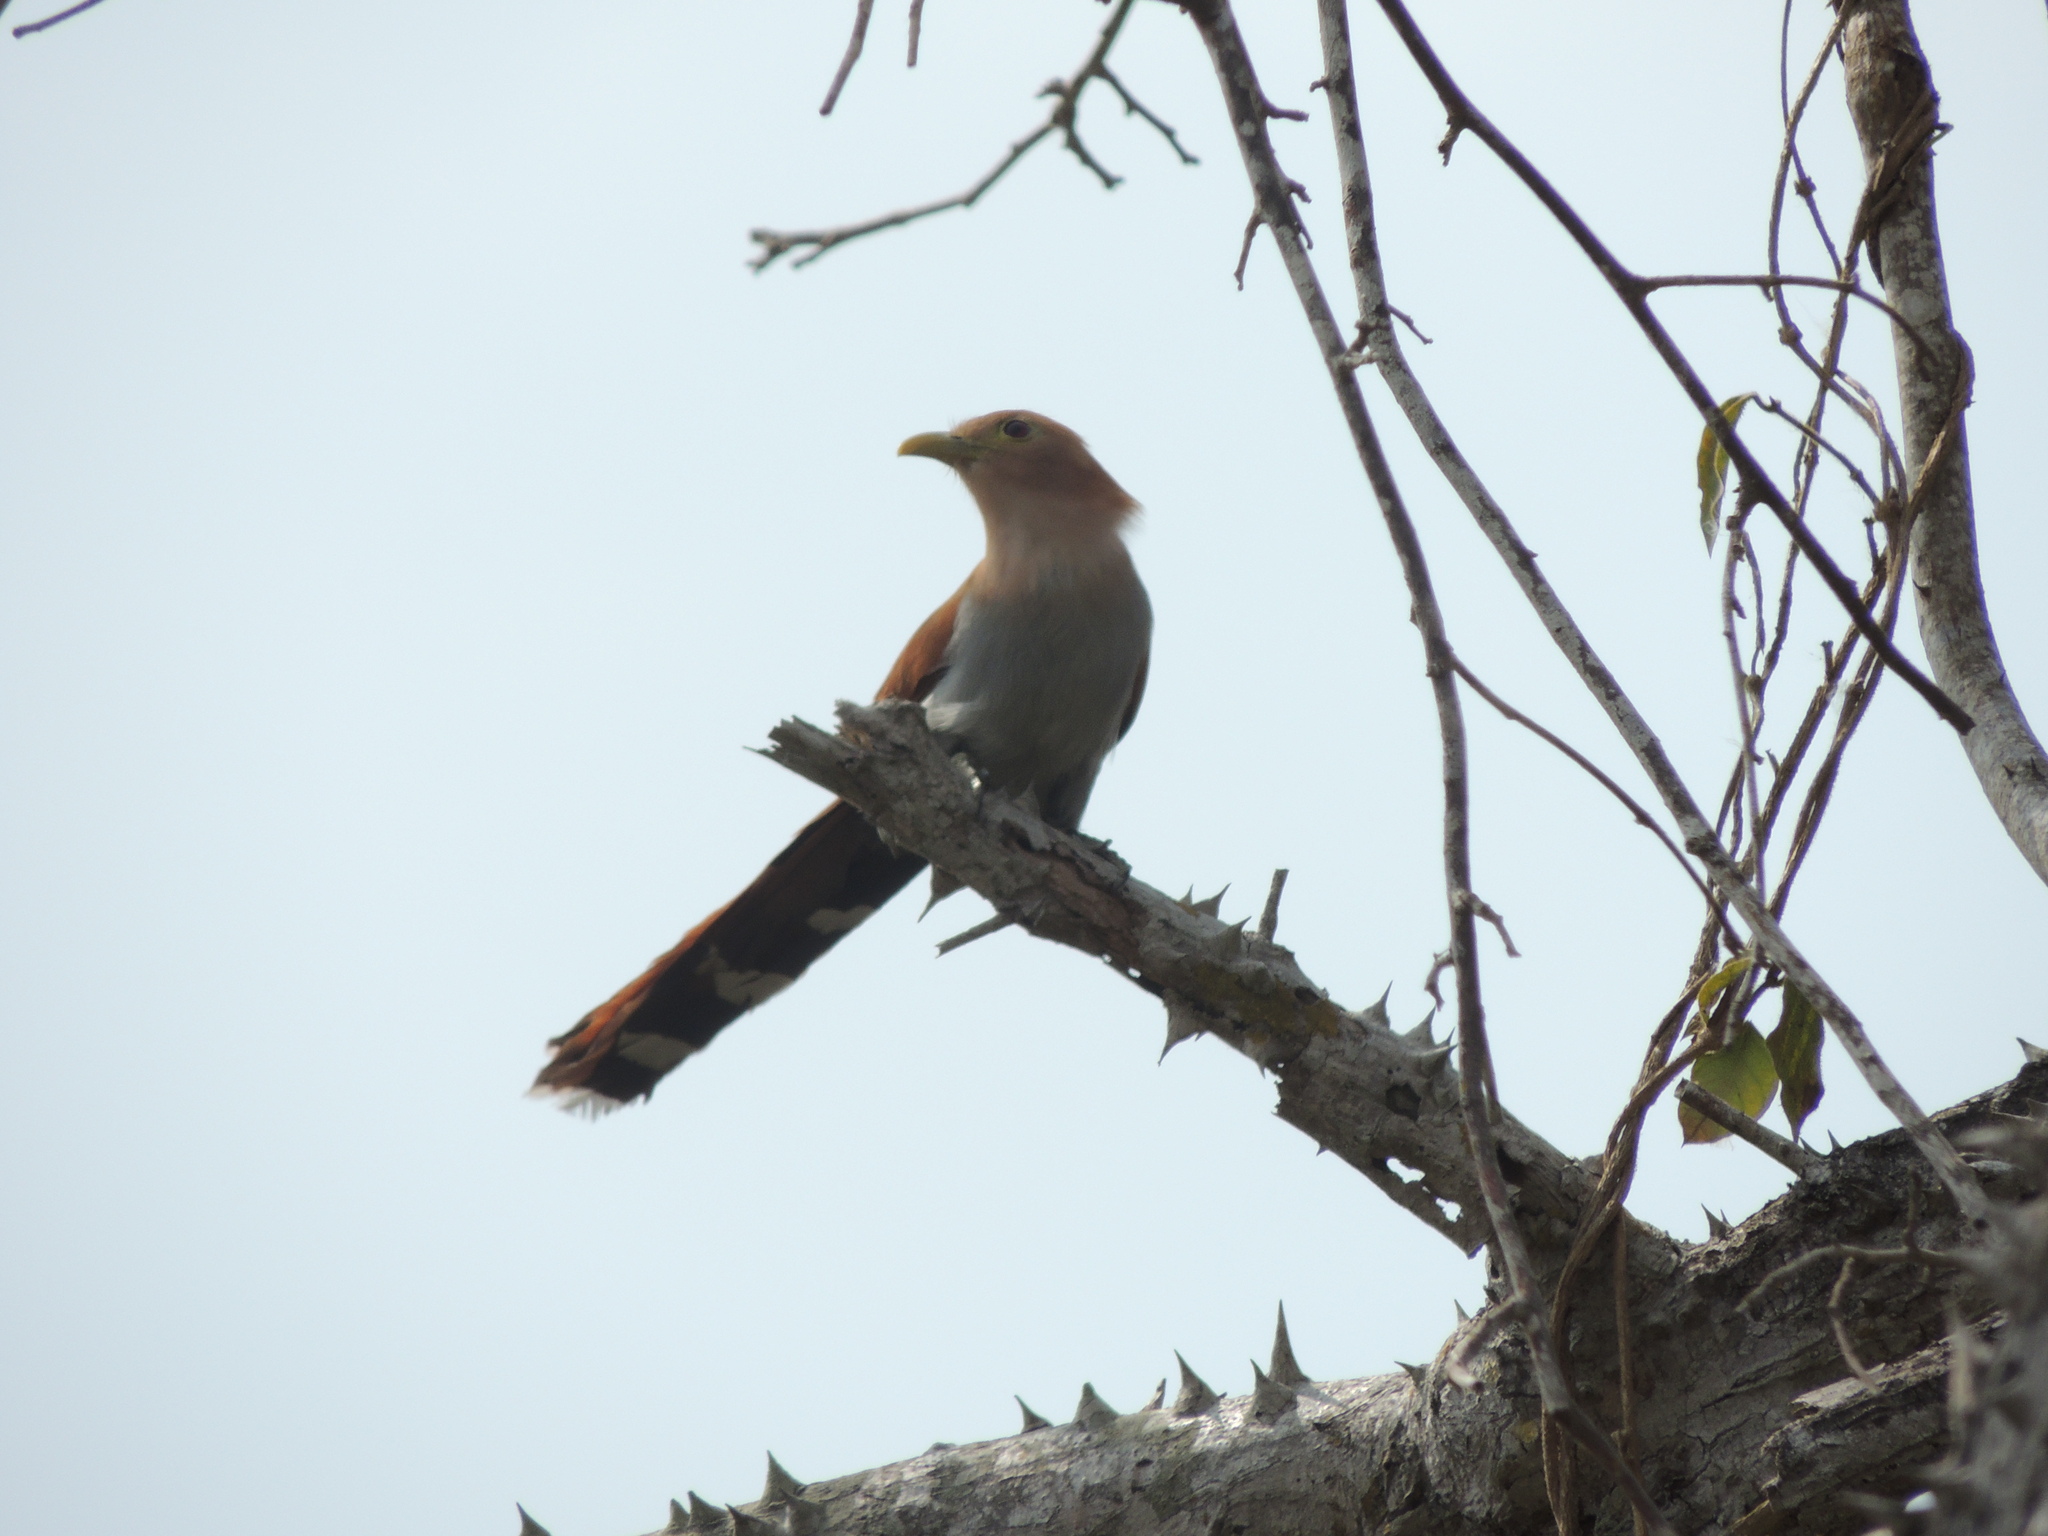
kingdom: Animalia
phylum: Chordata
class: Aves
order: Cuculiformes
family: Cuculidae
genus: Piaya
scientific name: Piaya cayana
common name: Squirrel cuckoo
